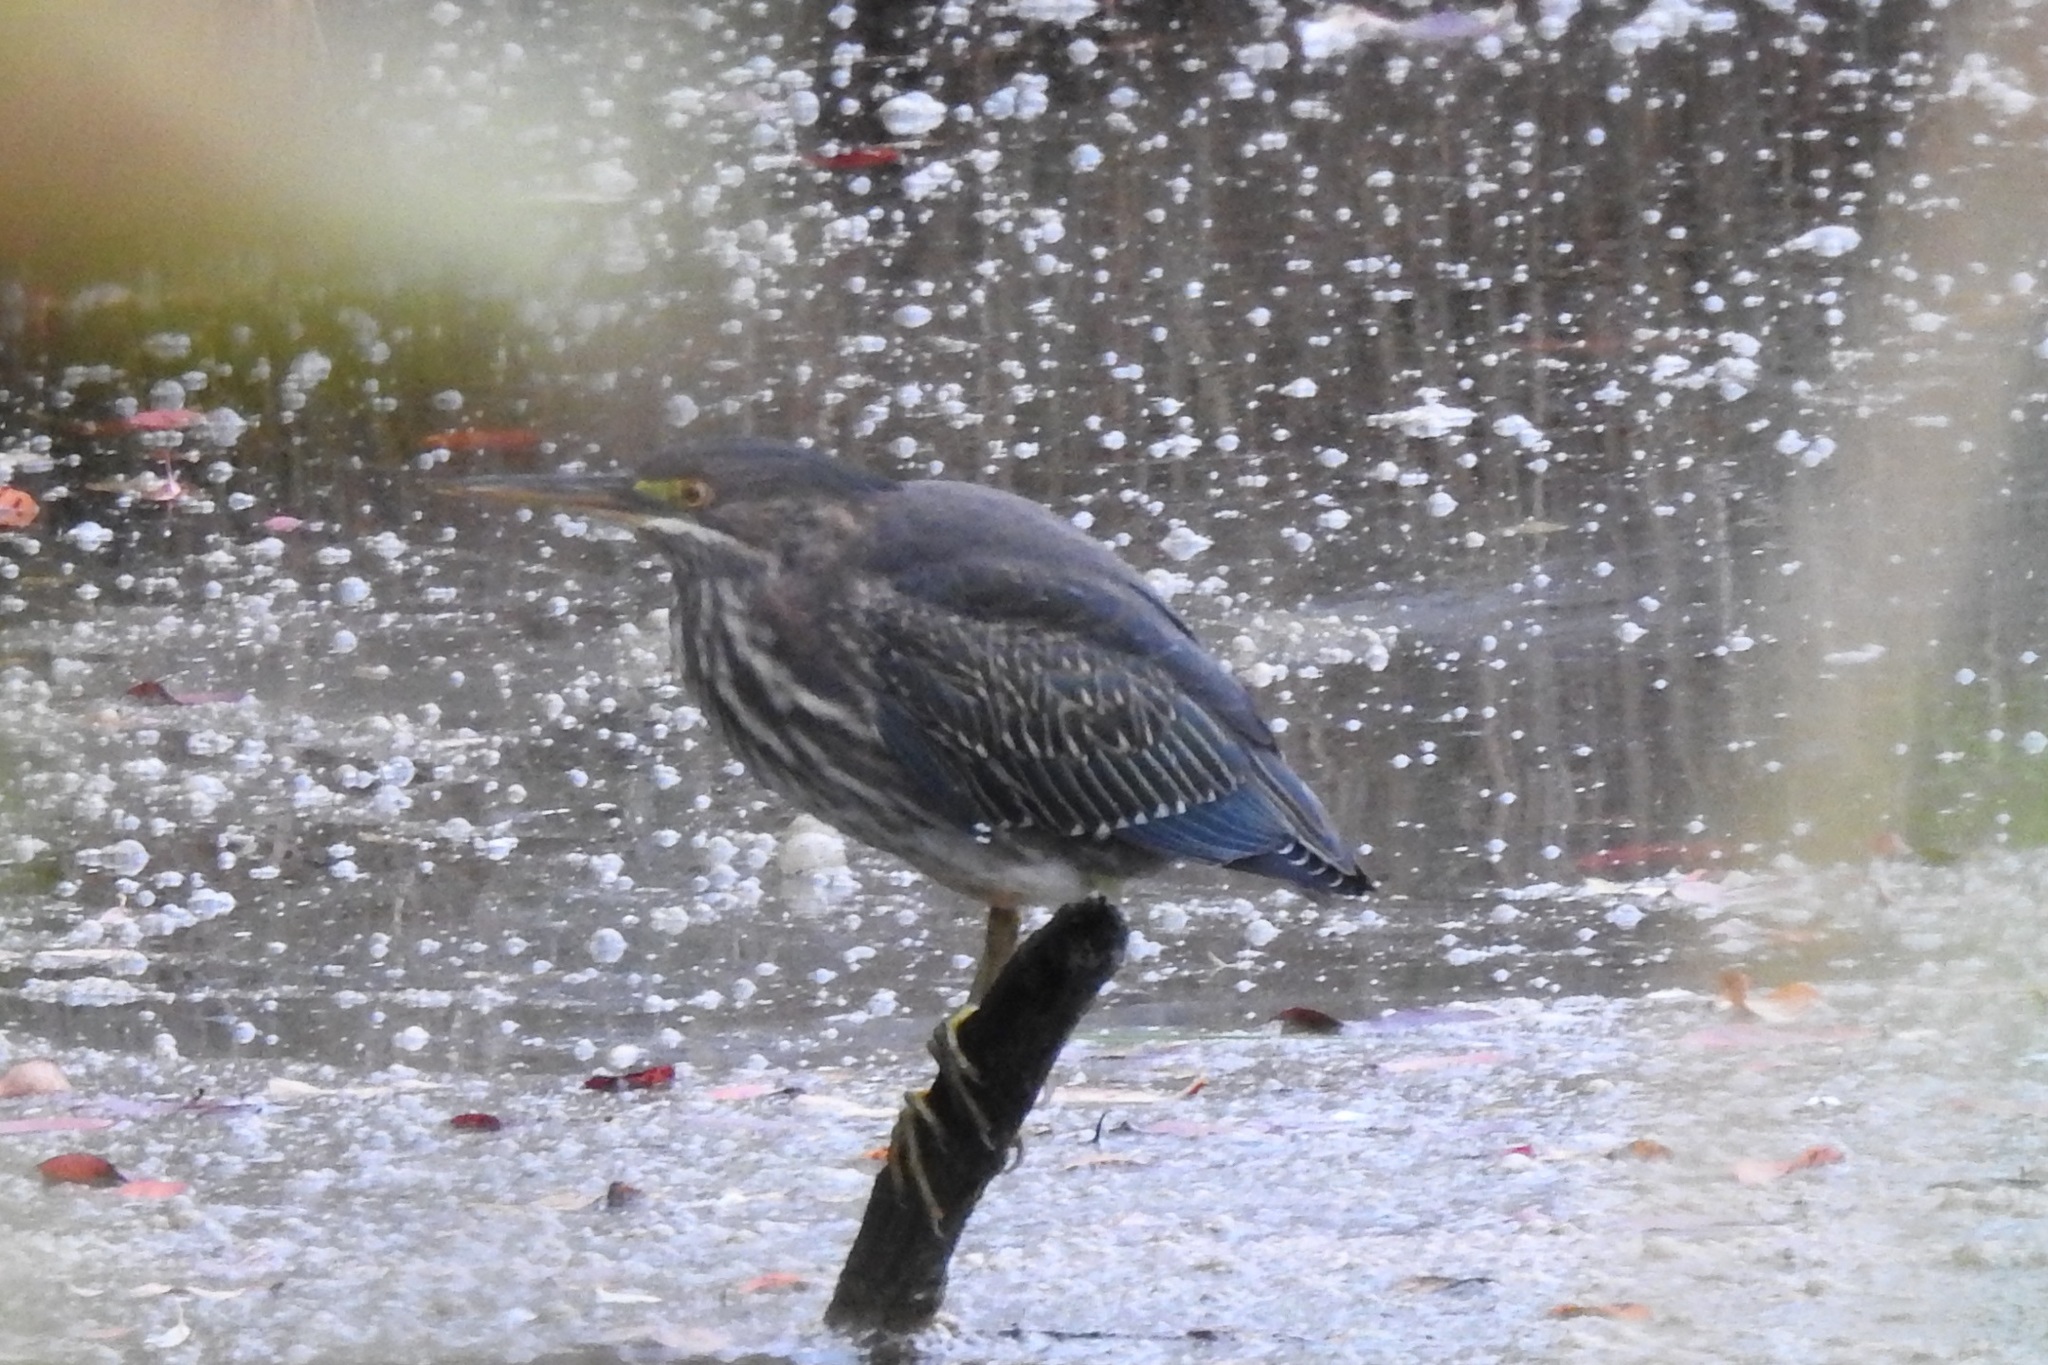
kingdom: Animalia
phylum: Chordata
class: Aves
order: Pelecaniformes
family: Ardeidae
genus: Butorides
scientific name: Butorides virescens
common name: Green heron
